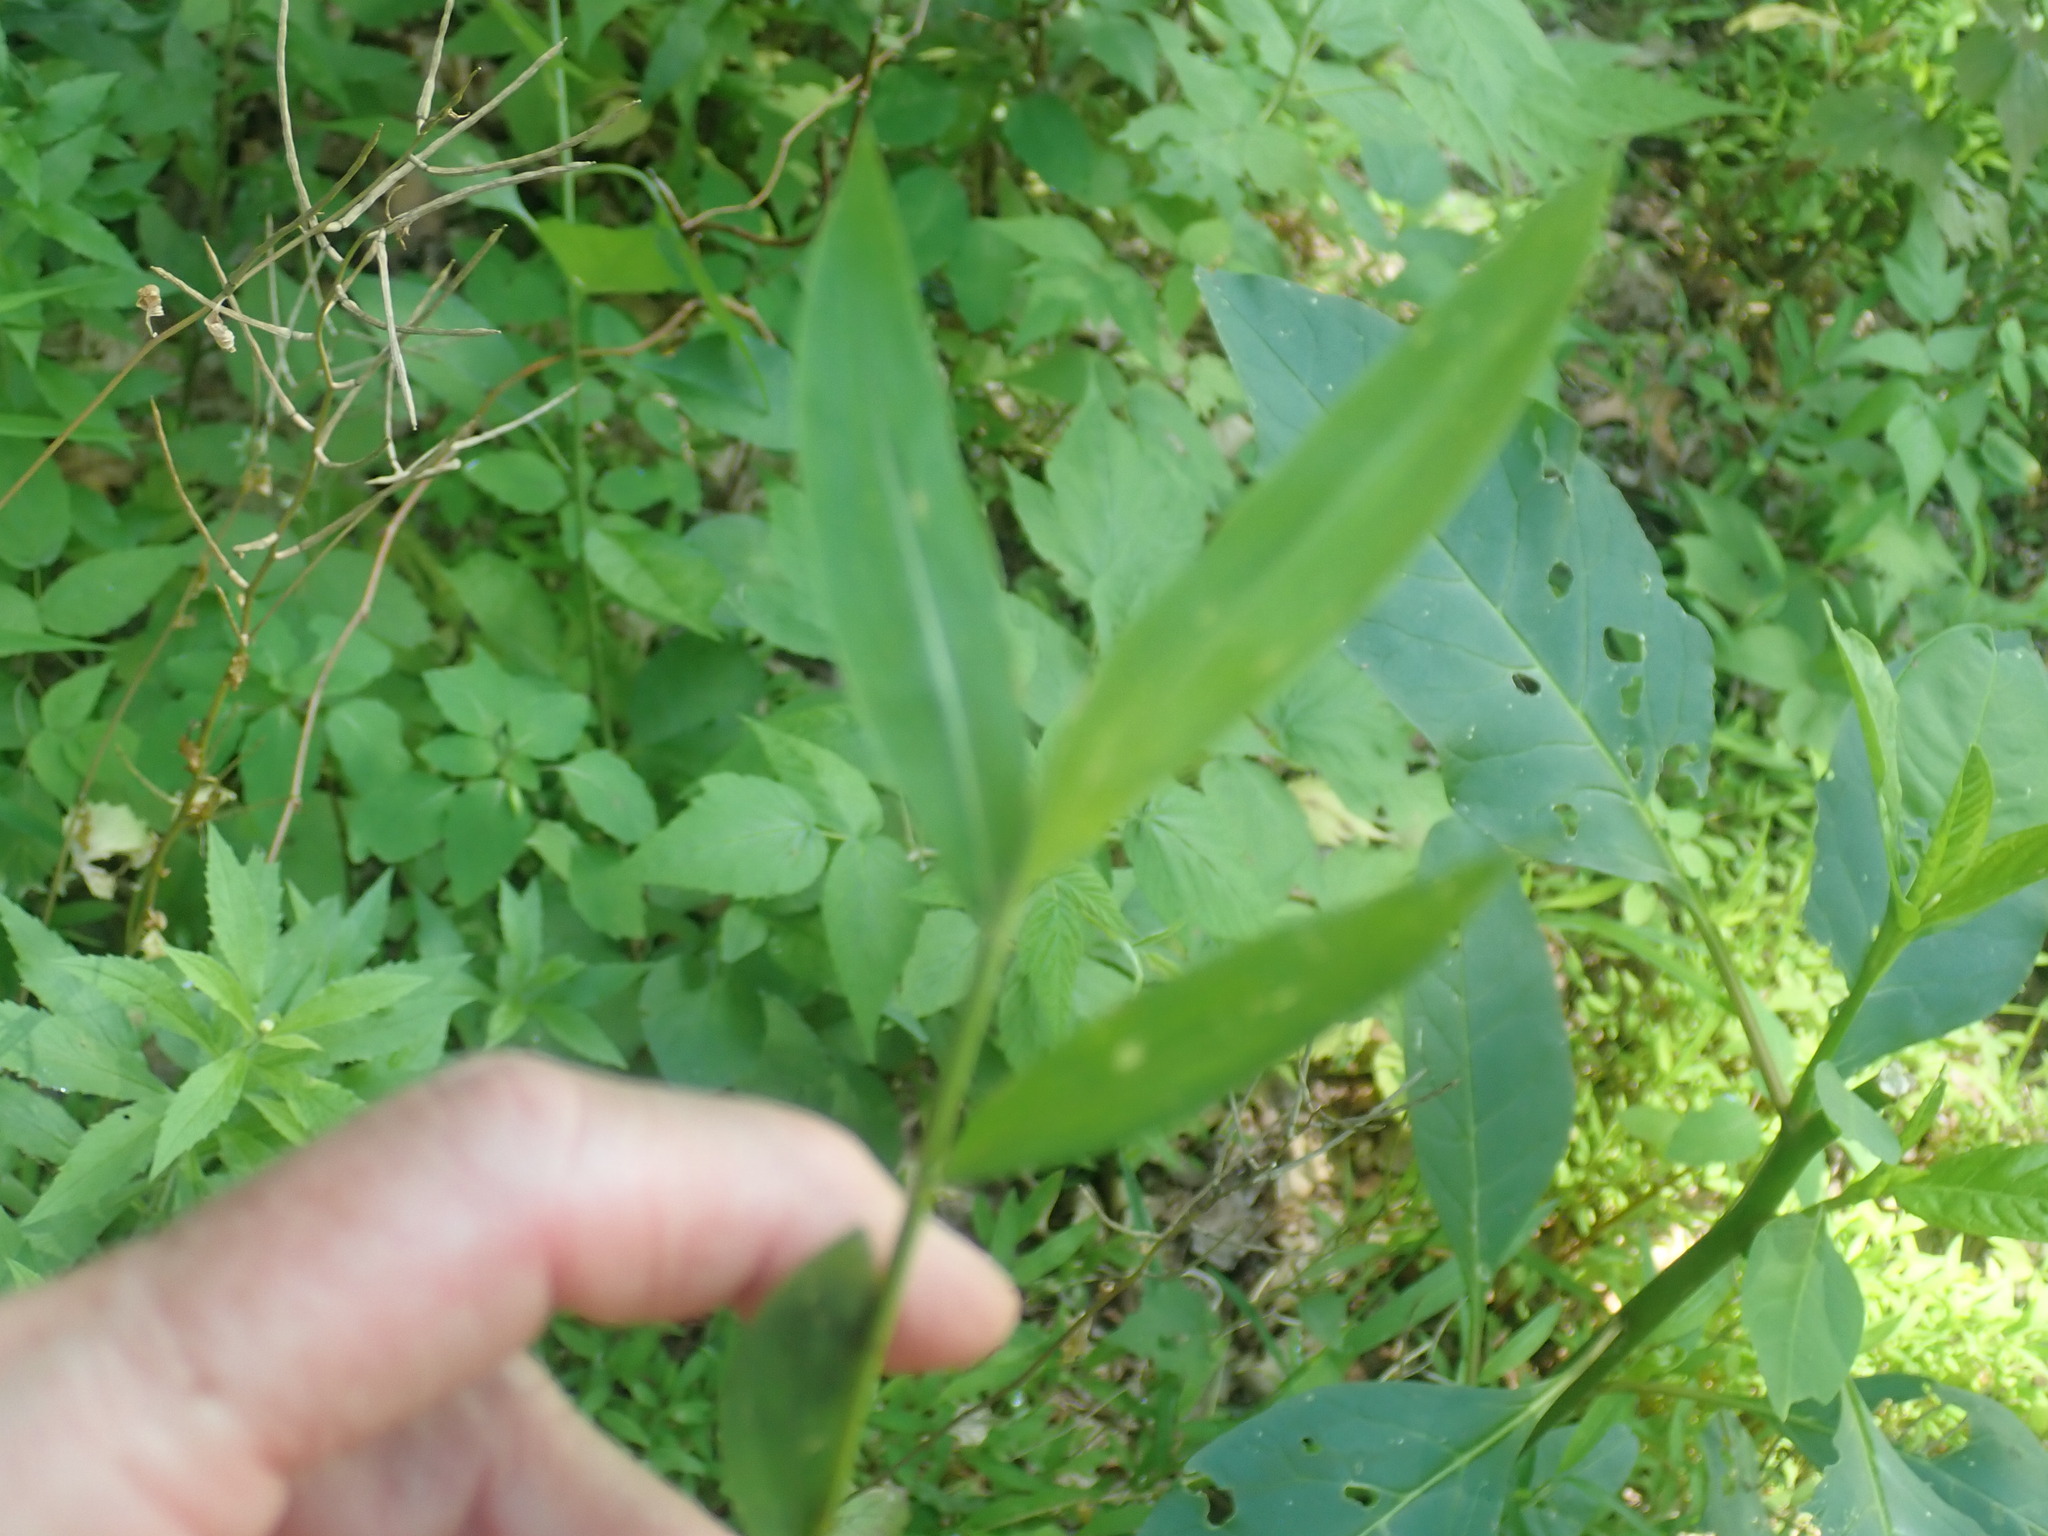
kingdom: Plantae
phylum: Tracheophyta
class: Liliopsida
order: Poales
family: Poaceae
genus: Microstegium
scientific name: Microstegium vimineum
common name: Japanese stiltgrass
